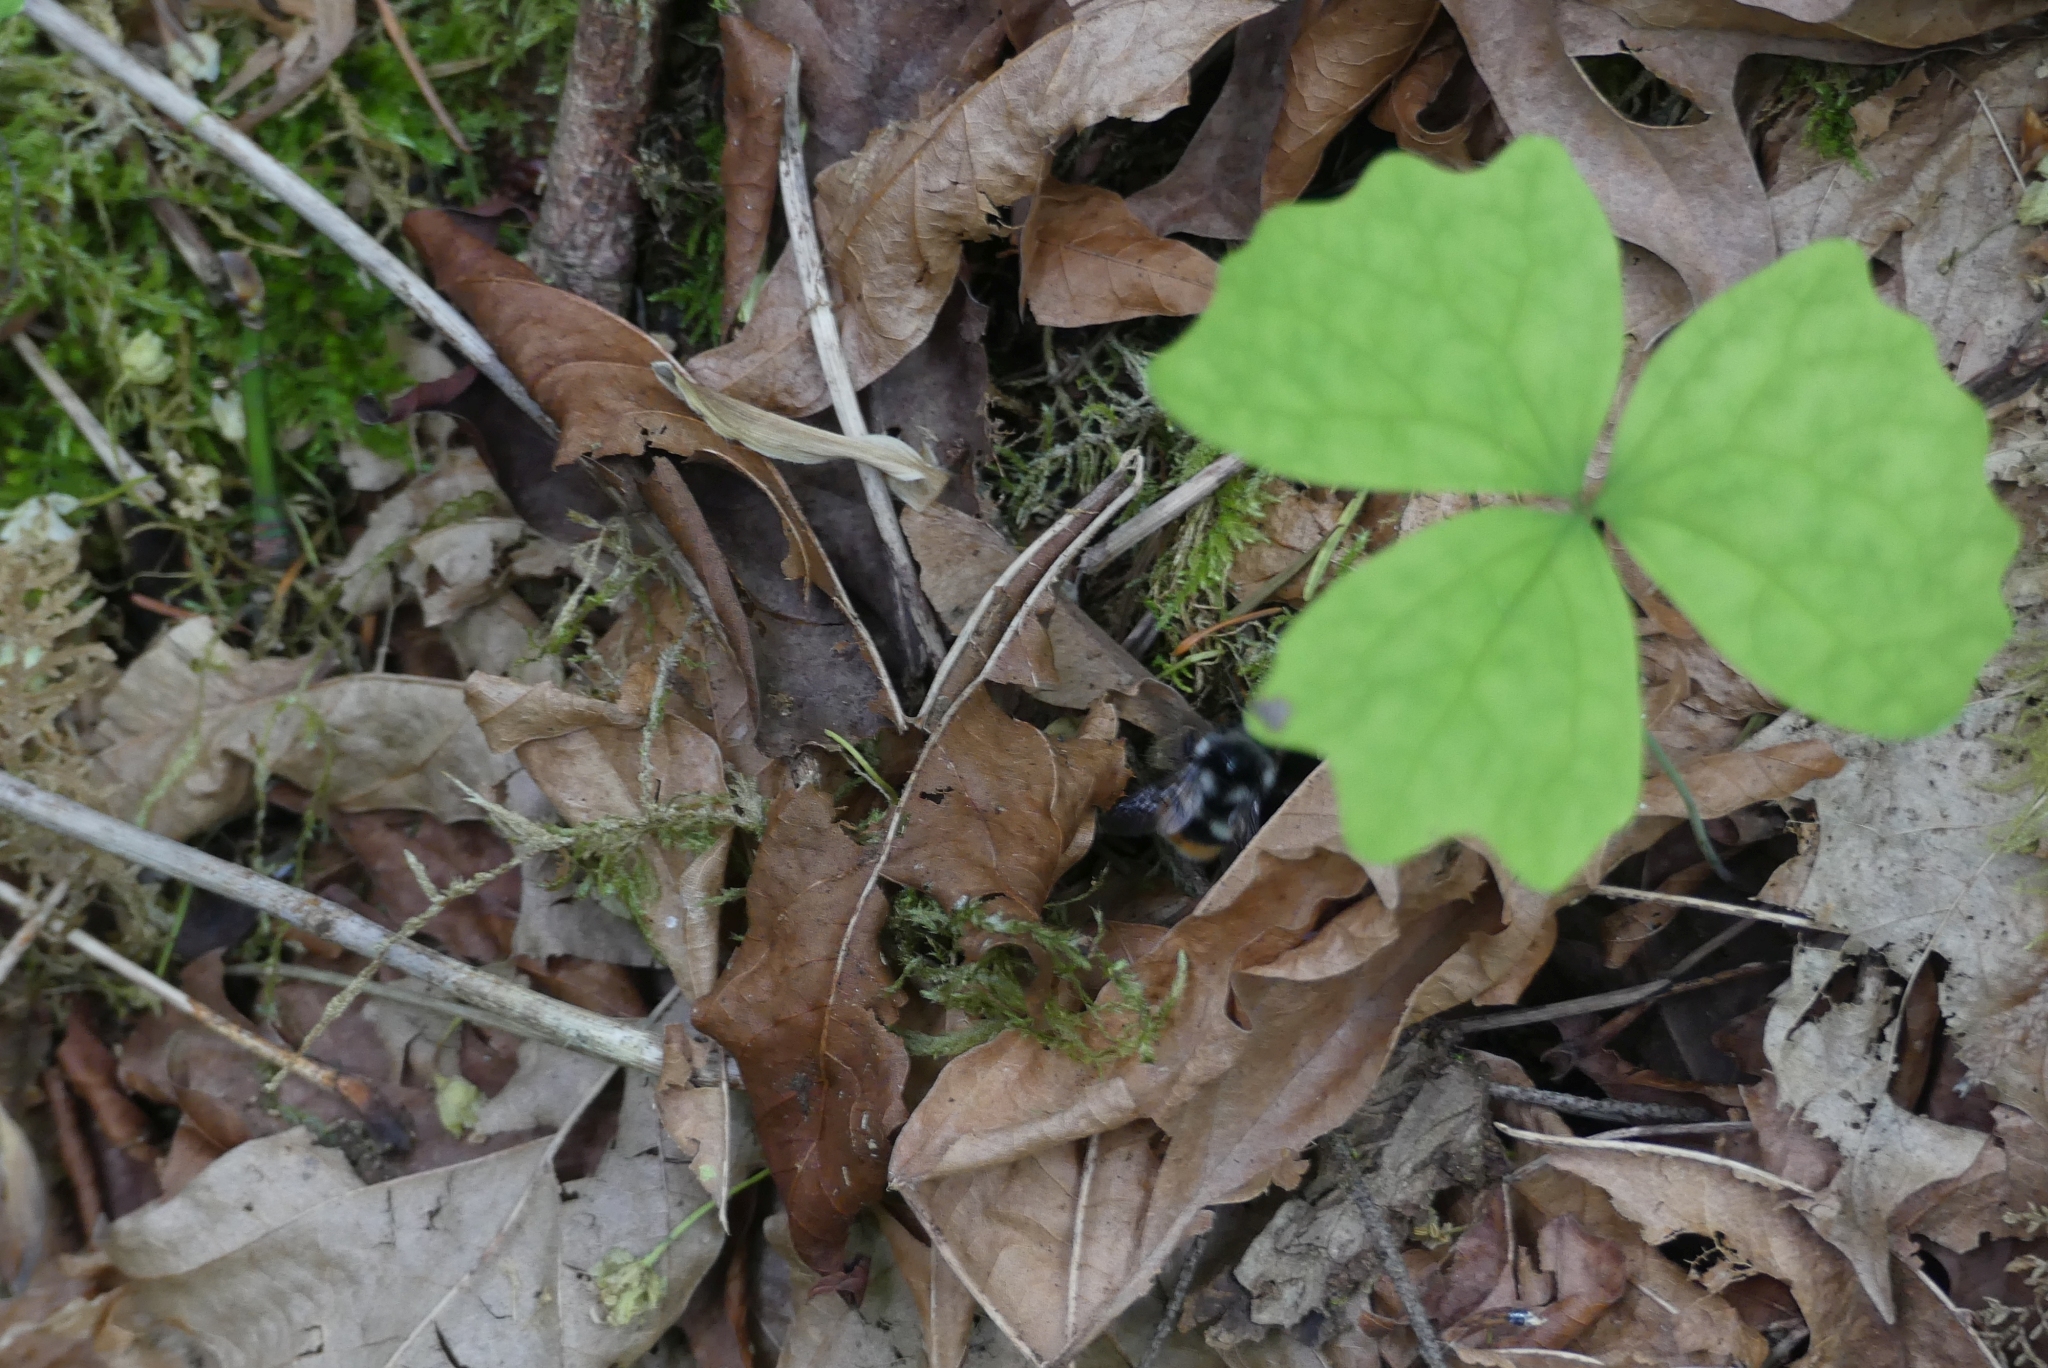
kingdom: Plantae
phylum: Tracheophyta
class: Magnoliopsida
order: Ranunculales
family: Berberidaceae
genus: Achlys
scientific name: Achlys triphylla
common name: Vanilla-leaf
